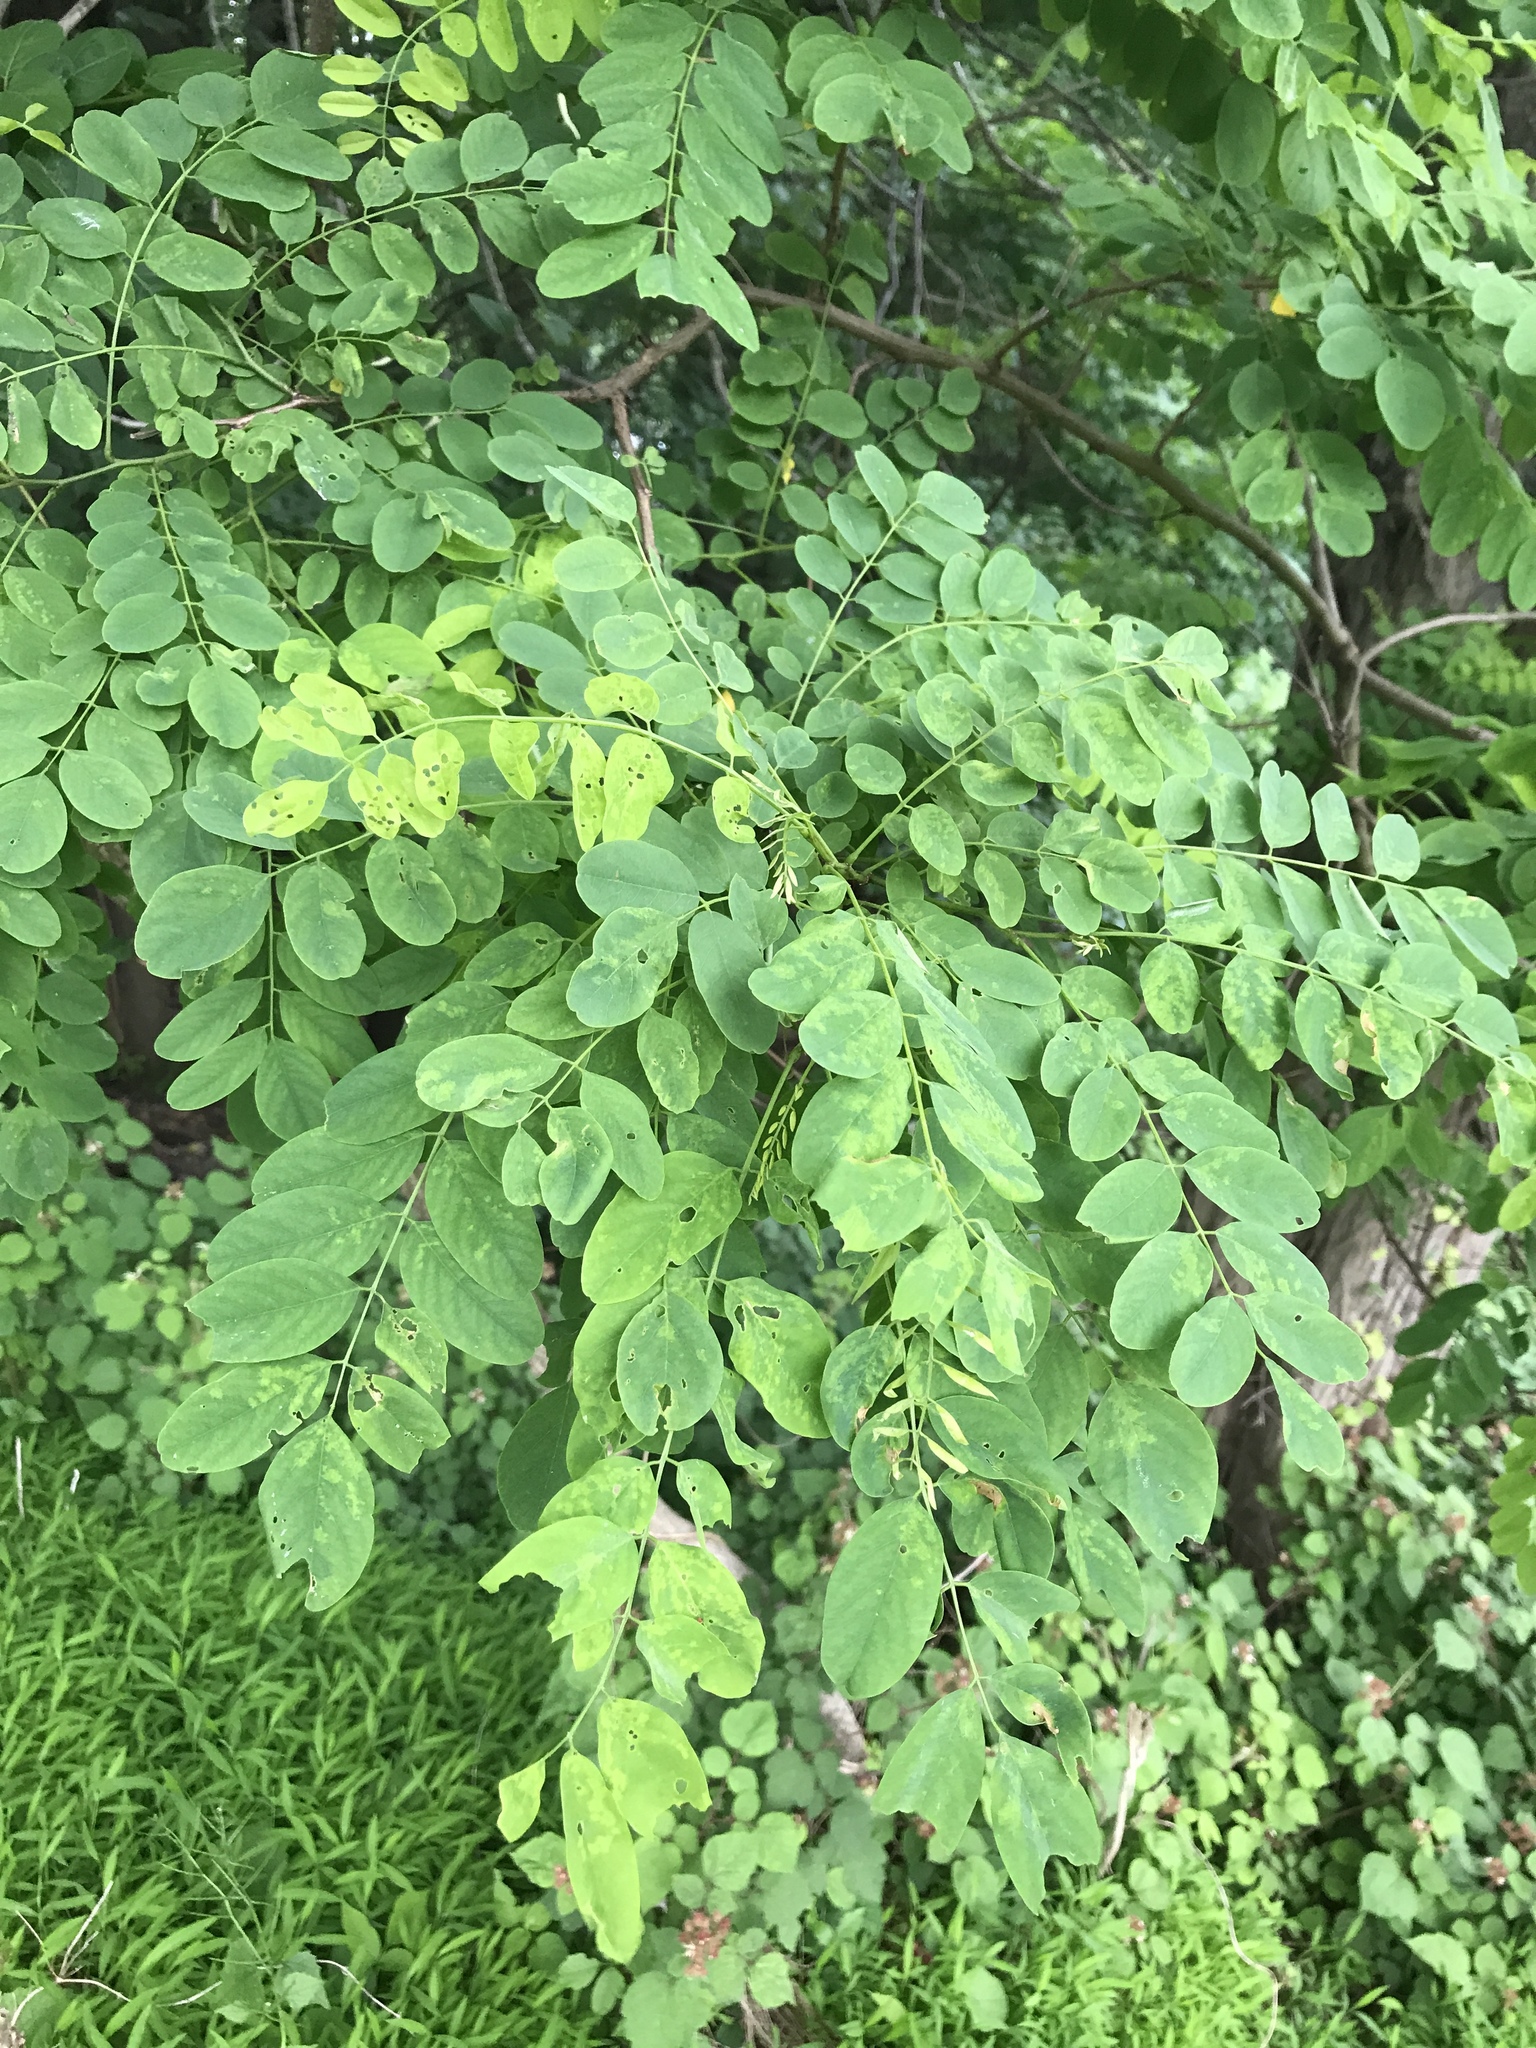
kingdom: Plantae
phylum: Tracheophyta
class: Magnoliopsida
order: Fabales
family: Fabaceae
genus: Robinia
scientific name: Robinia pseudoacacia
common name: Black locust
